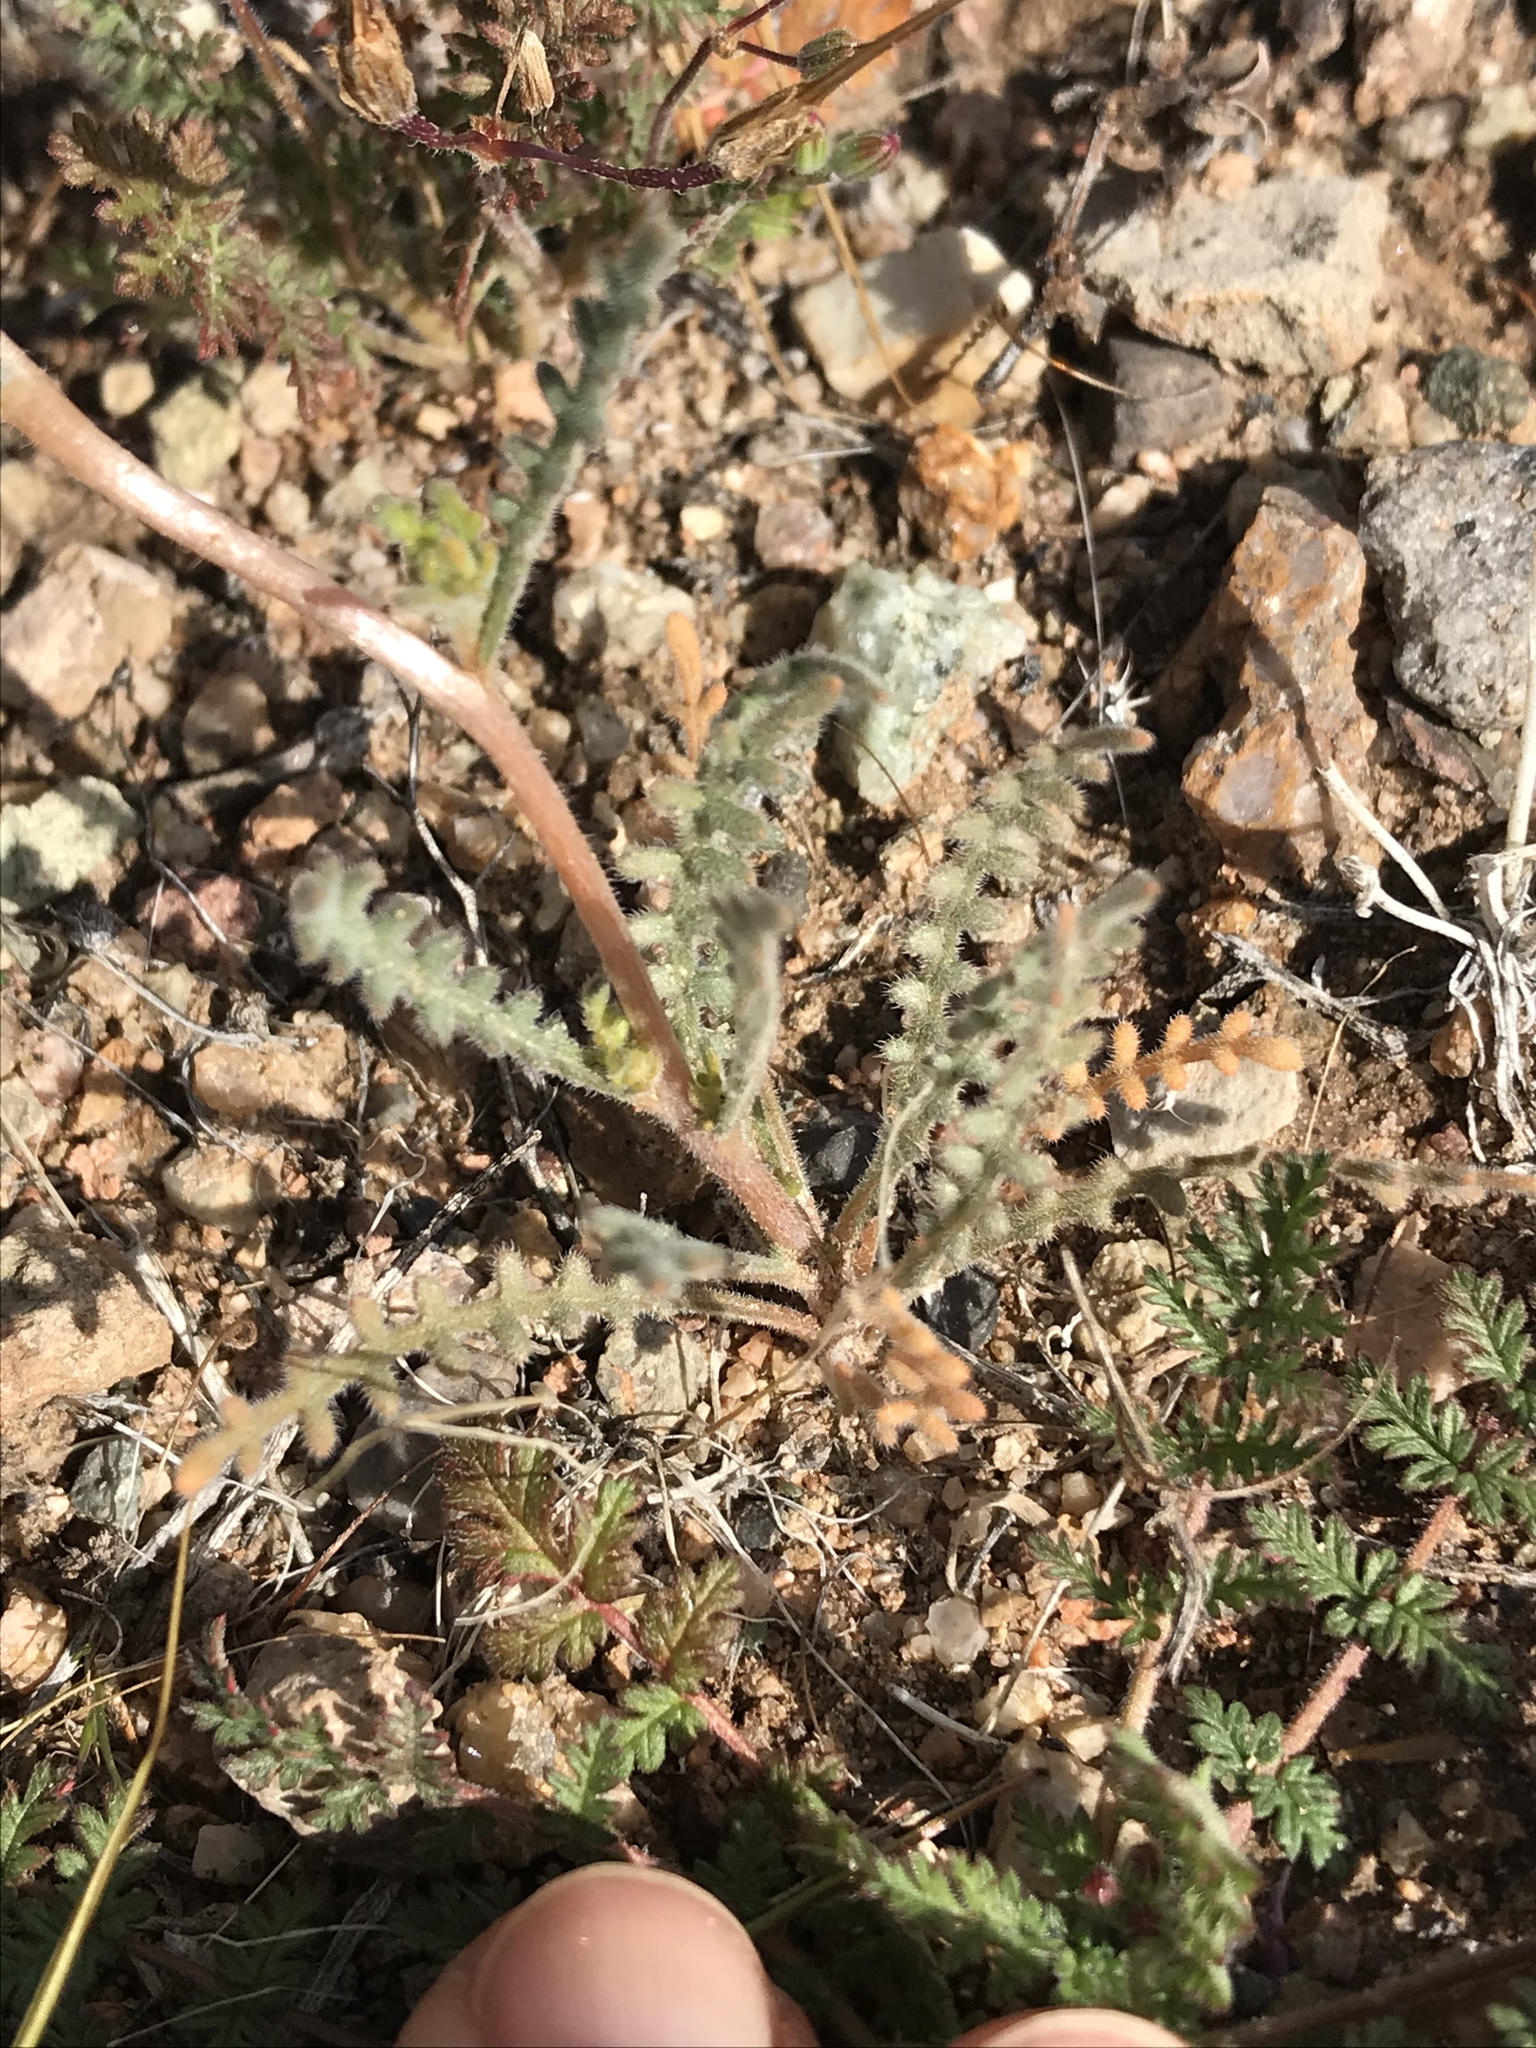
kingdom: Plantae
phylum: Tracheophyta
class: Magnoliopsida
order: Cornales
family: Loasaceae
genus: Mentzelia
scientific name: Mentzelia involucrata
